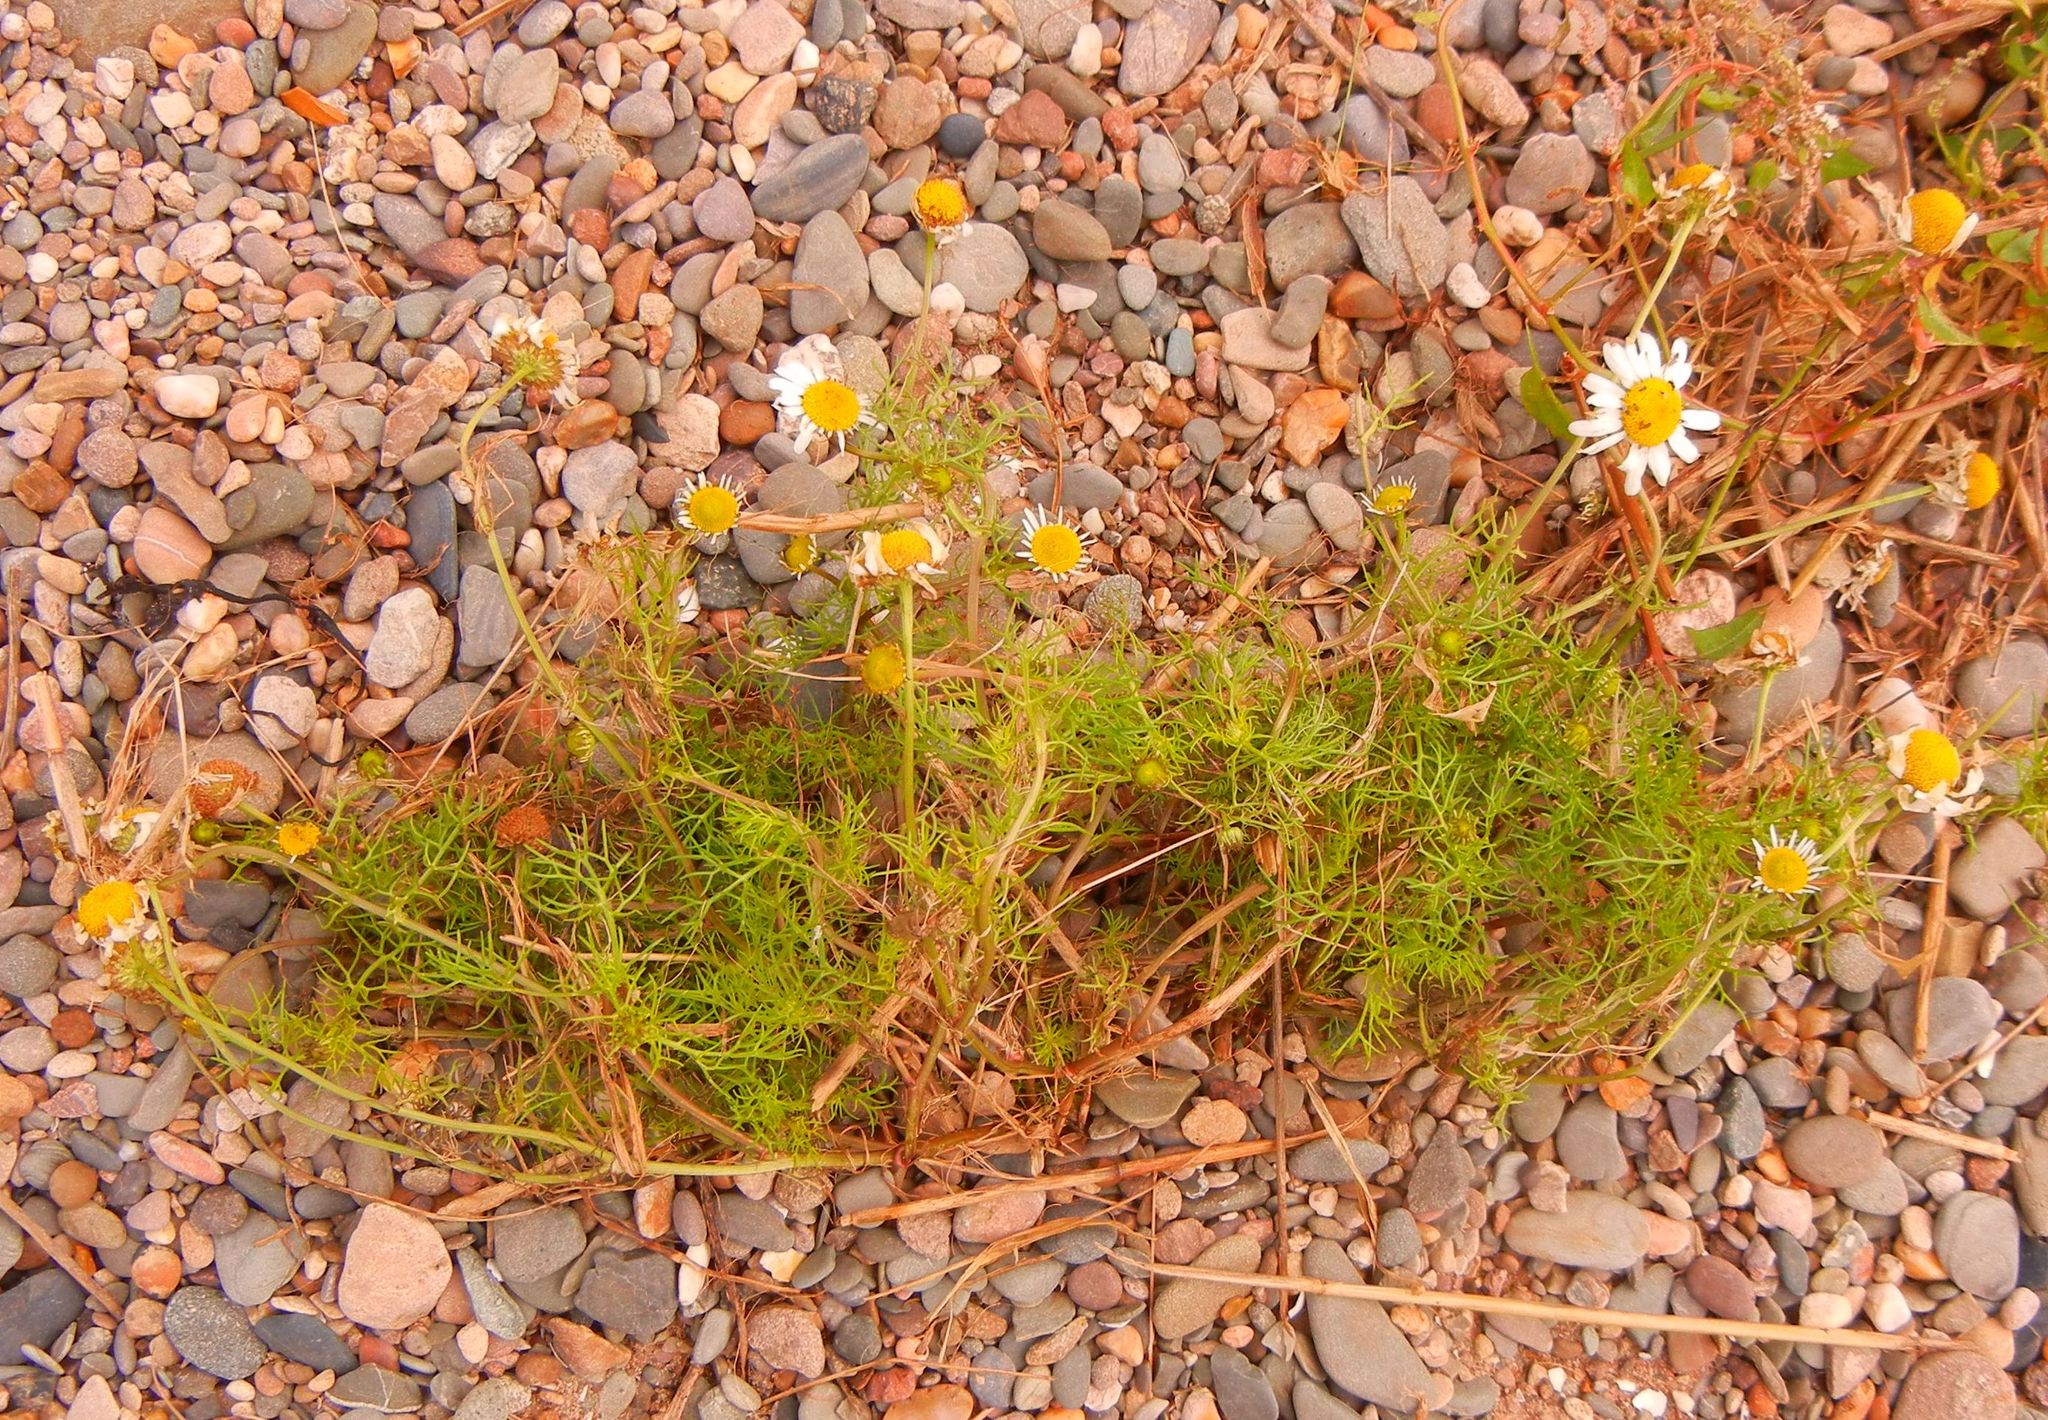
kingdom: Plantae
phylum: Tracheophyta
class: Magnoliopsida
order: Asterales
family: Asteraceae
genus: Tripleurospermum
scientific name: Tripleurospermum maritimum
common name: Sea mayweed
